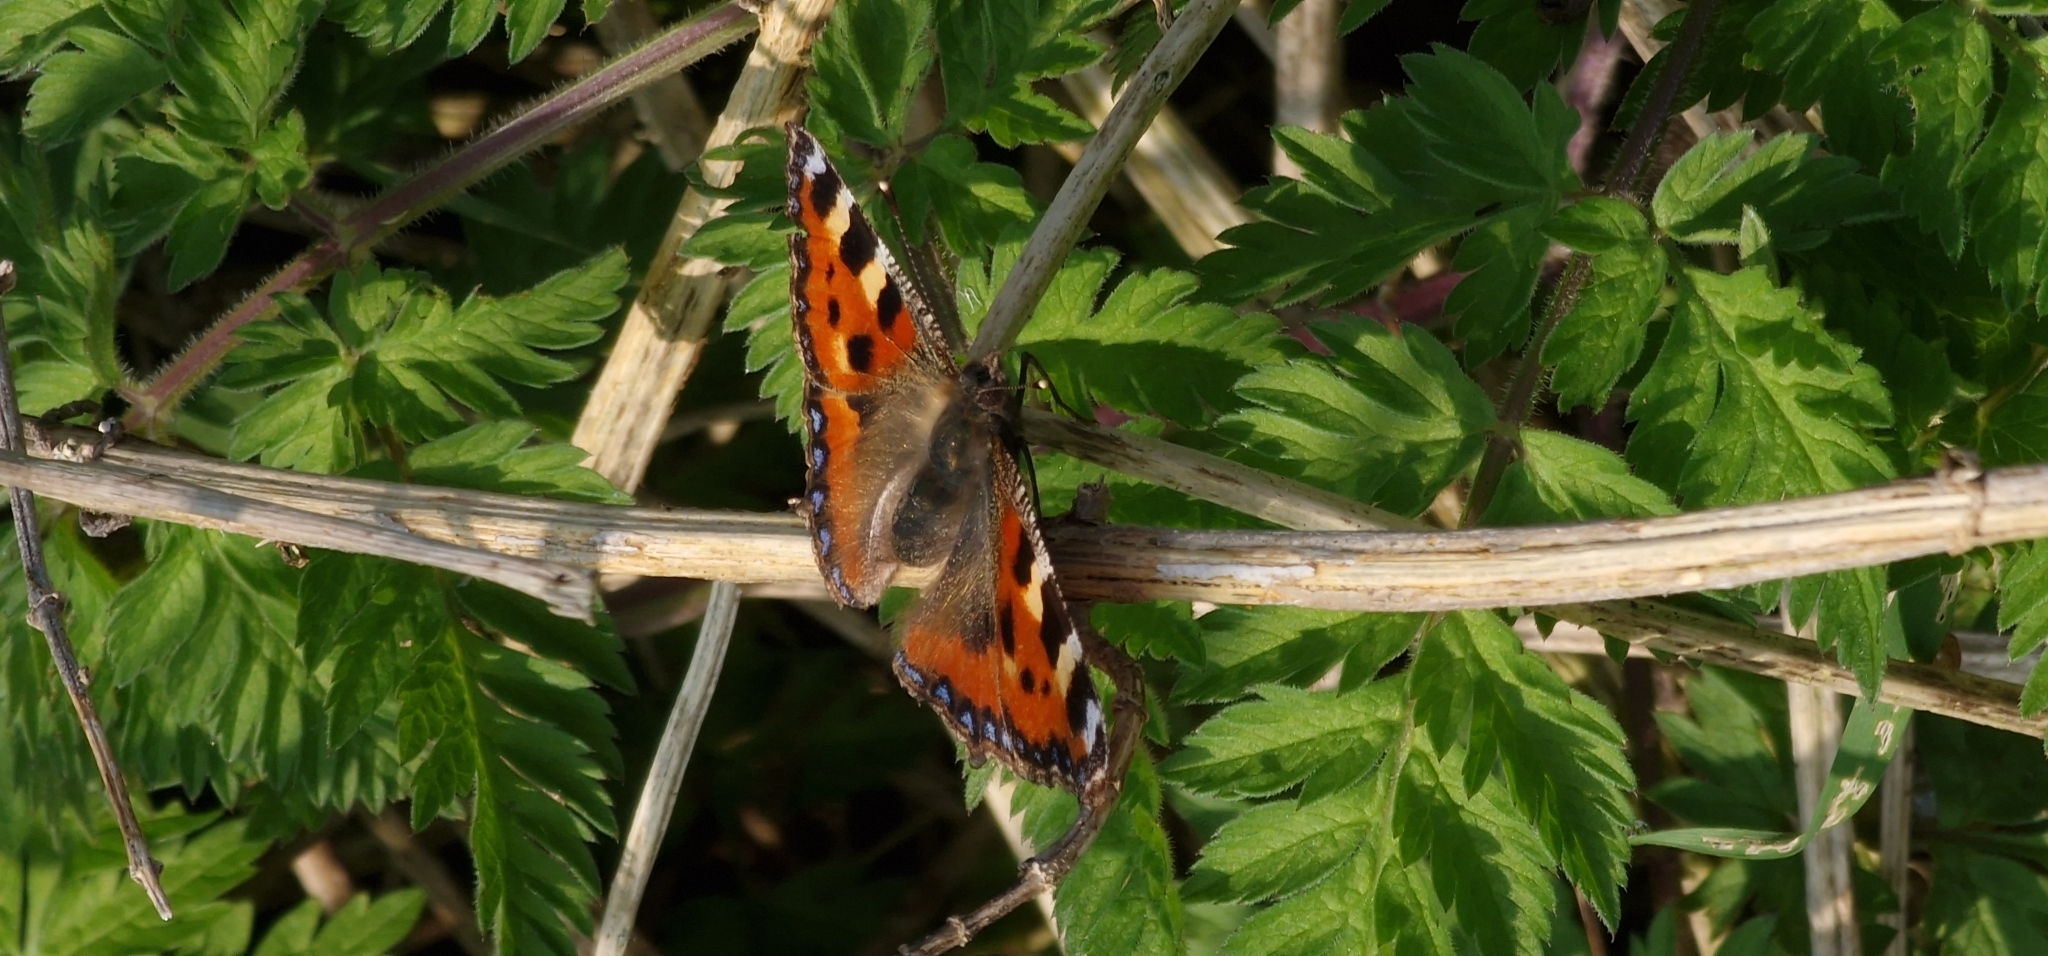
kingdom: Animalia
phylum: Arthropoda
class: Insecta
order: Lepidoptera
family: Nymphalidae
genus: Aglais
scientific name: Aglais urticae
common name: Small tortoiseshell
